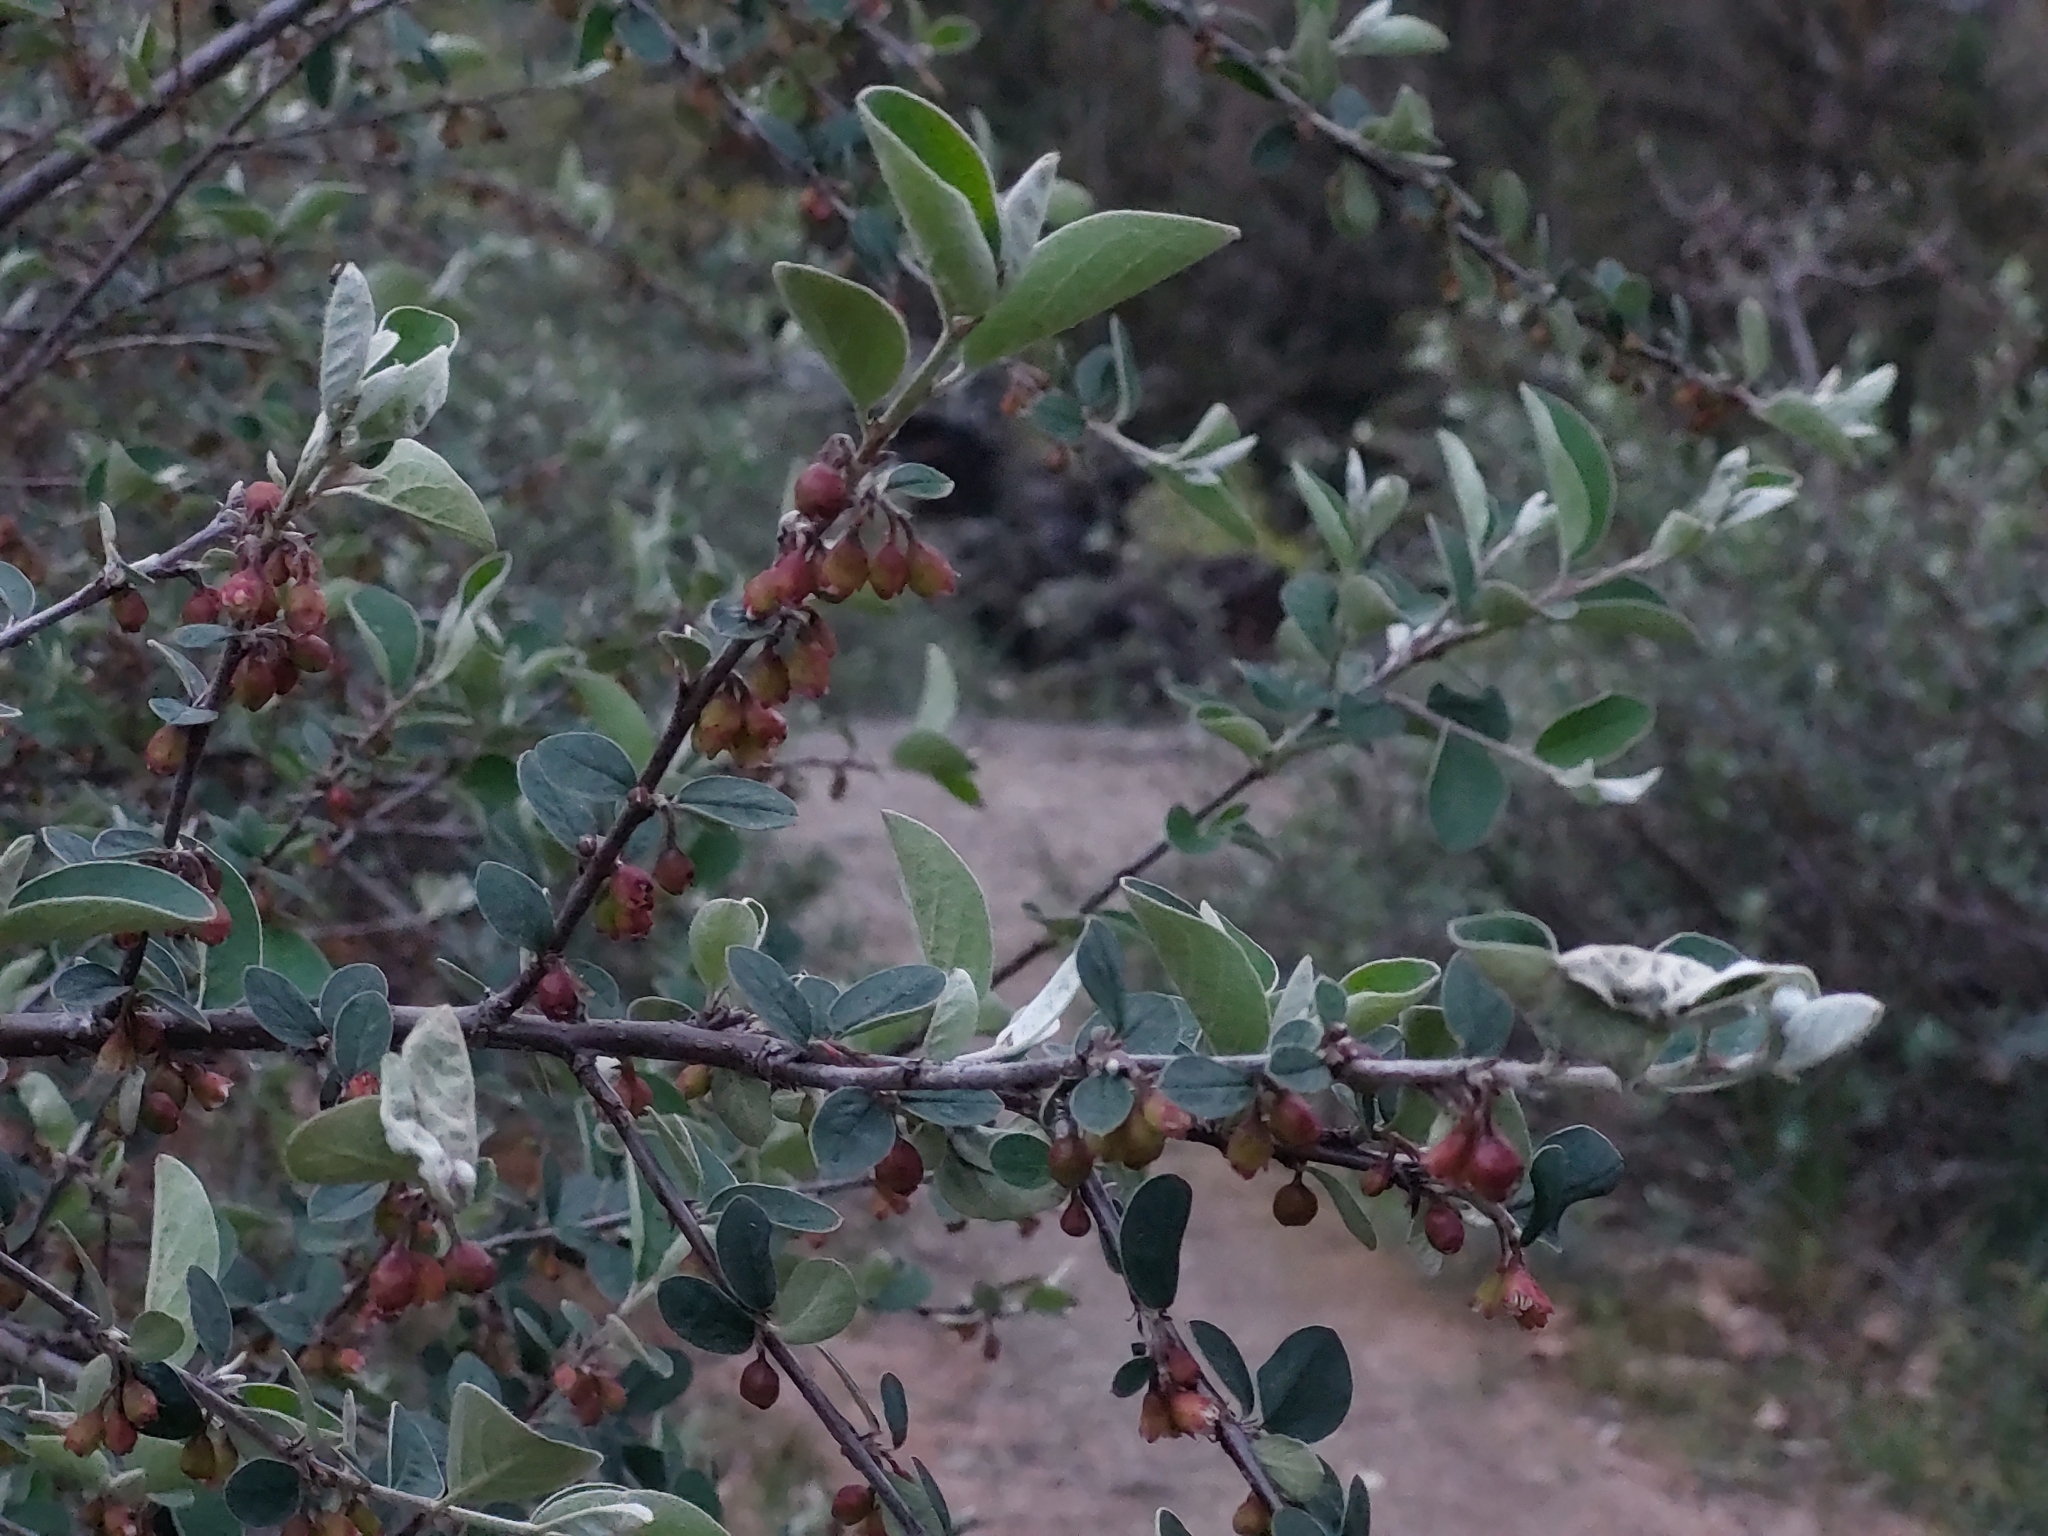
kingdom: Plantae
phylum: Tracheophyta
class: Magnoliopsida
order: Rosales
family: Rosaceae
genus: Cotoneaster
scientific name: Cotoneaster integerrimus
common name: Wild cotoneaster
